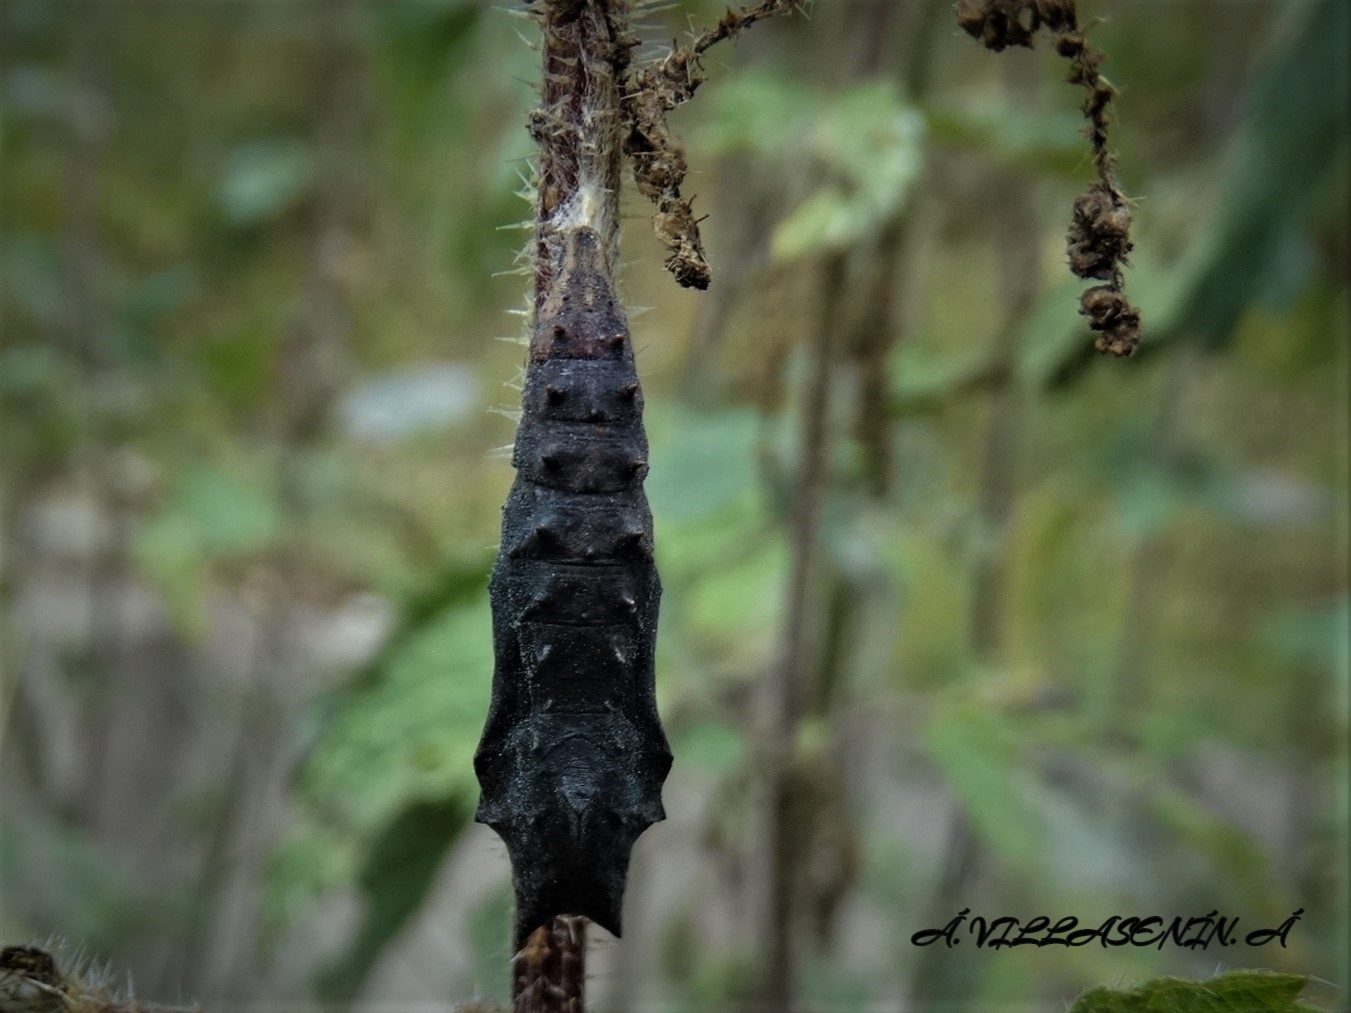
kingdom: Animalia
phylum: Arthropoda
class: Insecta
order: Lepidoptera
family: Nymphalidae
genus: Aglais
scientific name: Aglais io
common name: Peacock
